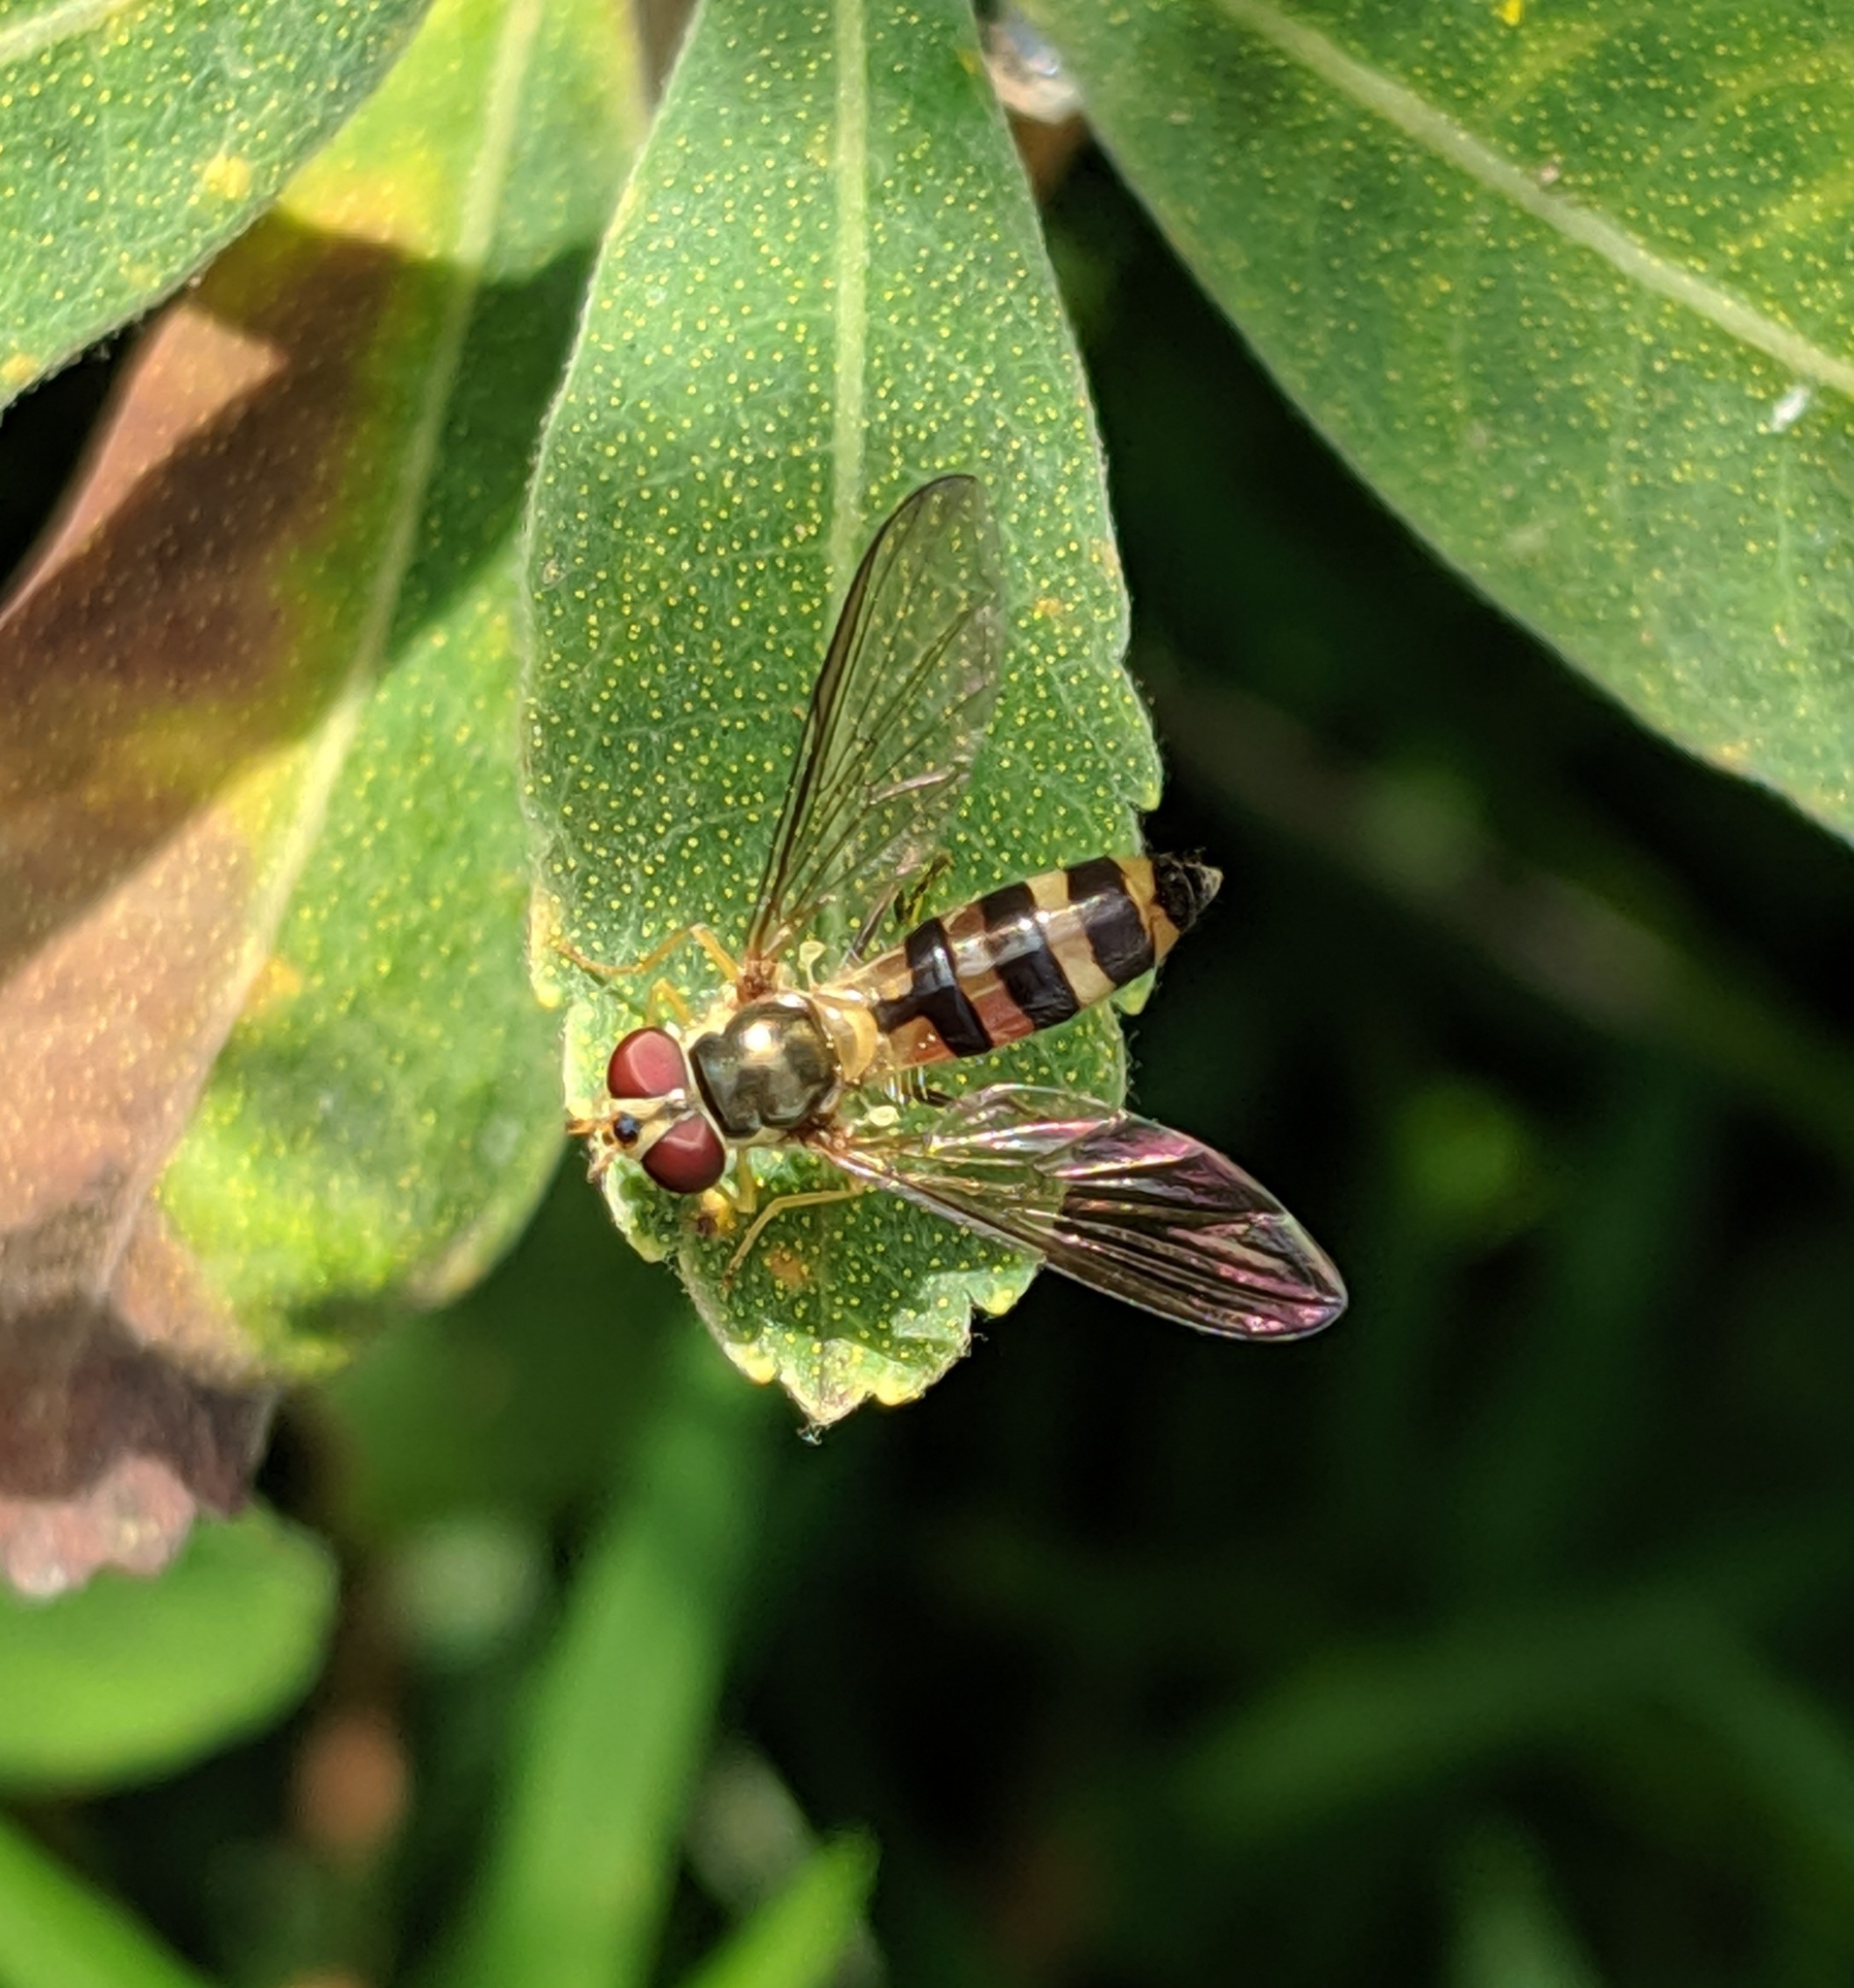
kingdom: Animalia
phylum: Arthropoda
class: Insecta
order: Diptera
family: Syrphidae
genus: Meliscaeva
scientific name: Meliscaeva cinctella
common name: American thintail fly
